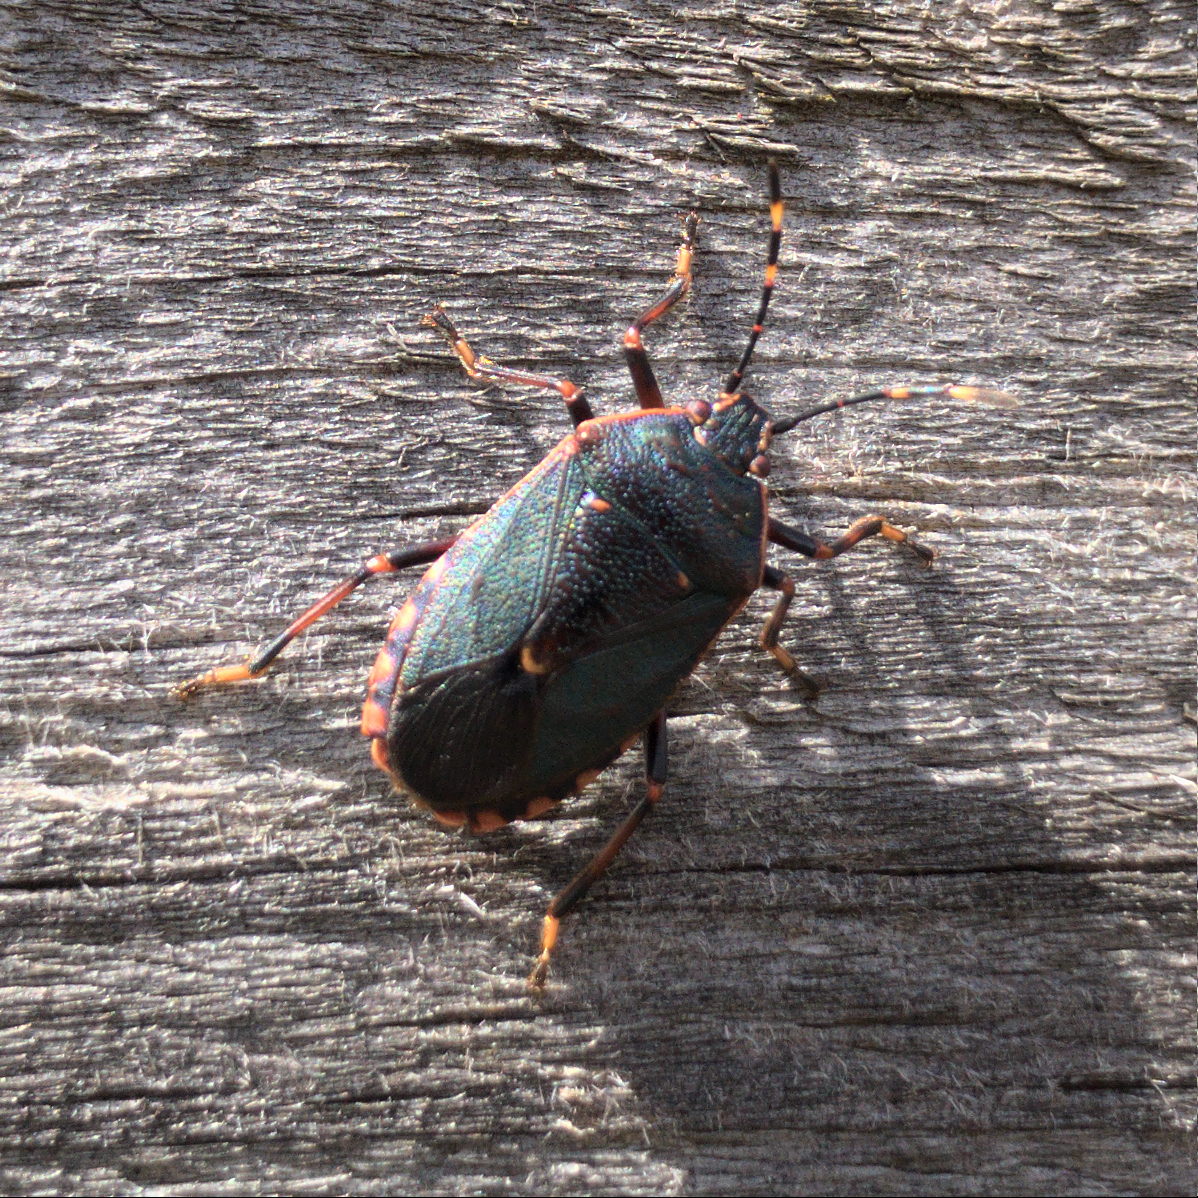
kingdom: Animalia
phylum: Arthropoda
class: Insecta
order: Hemiptera
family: Pentatomidae
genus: Notius
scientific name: Notius
